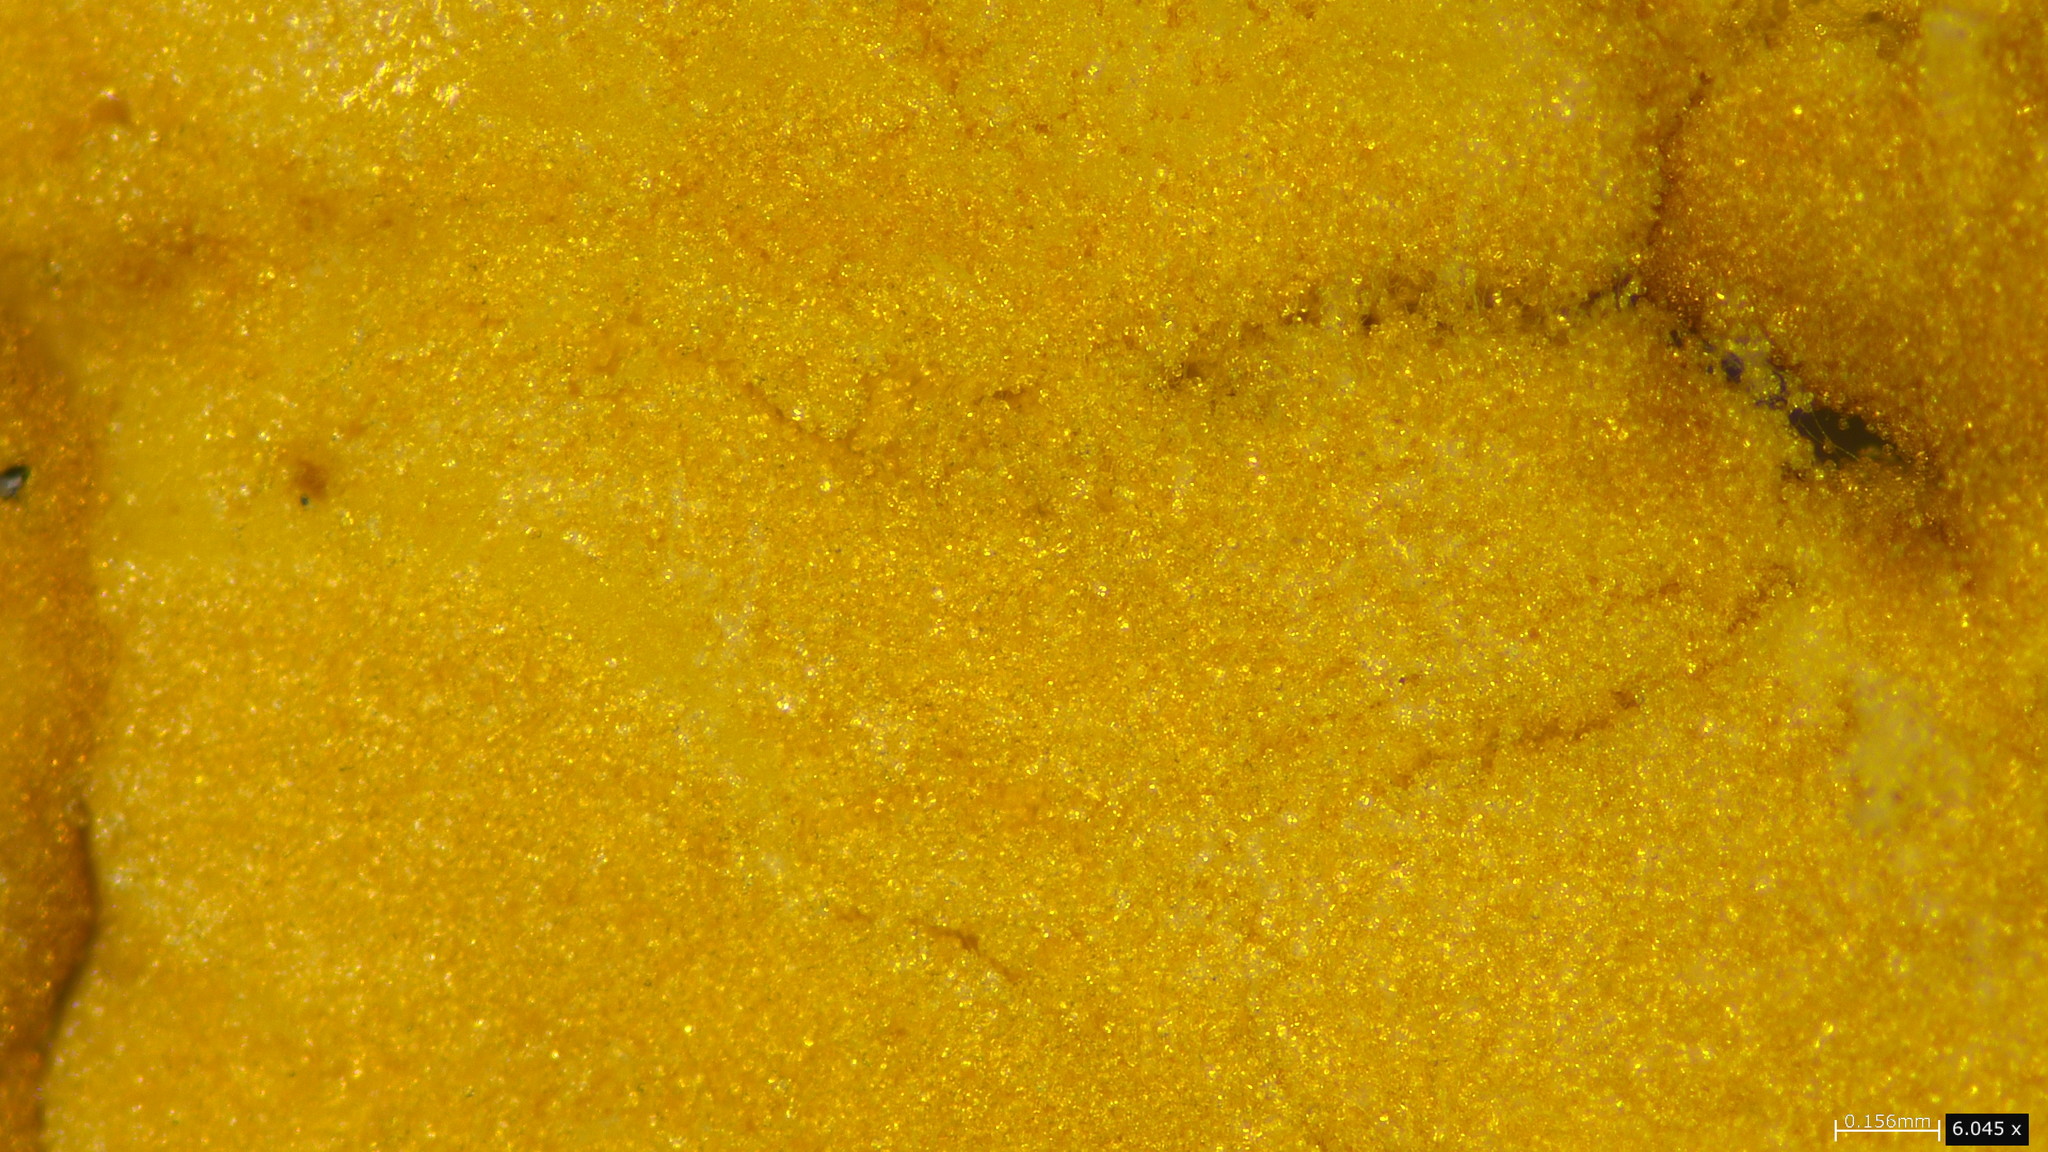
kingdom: Fungi
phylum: Basidiomycota
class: Pucciniomycetes
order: Pucciniales
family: Pucciniaceae
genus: Stereostratum
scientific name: Stereostratum corticioides
